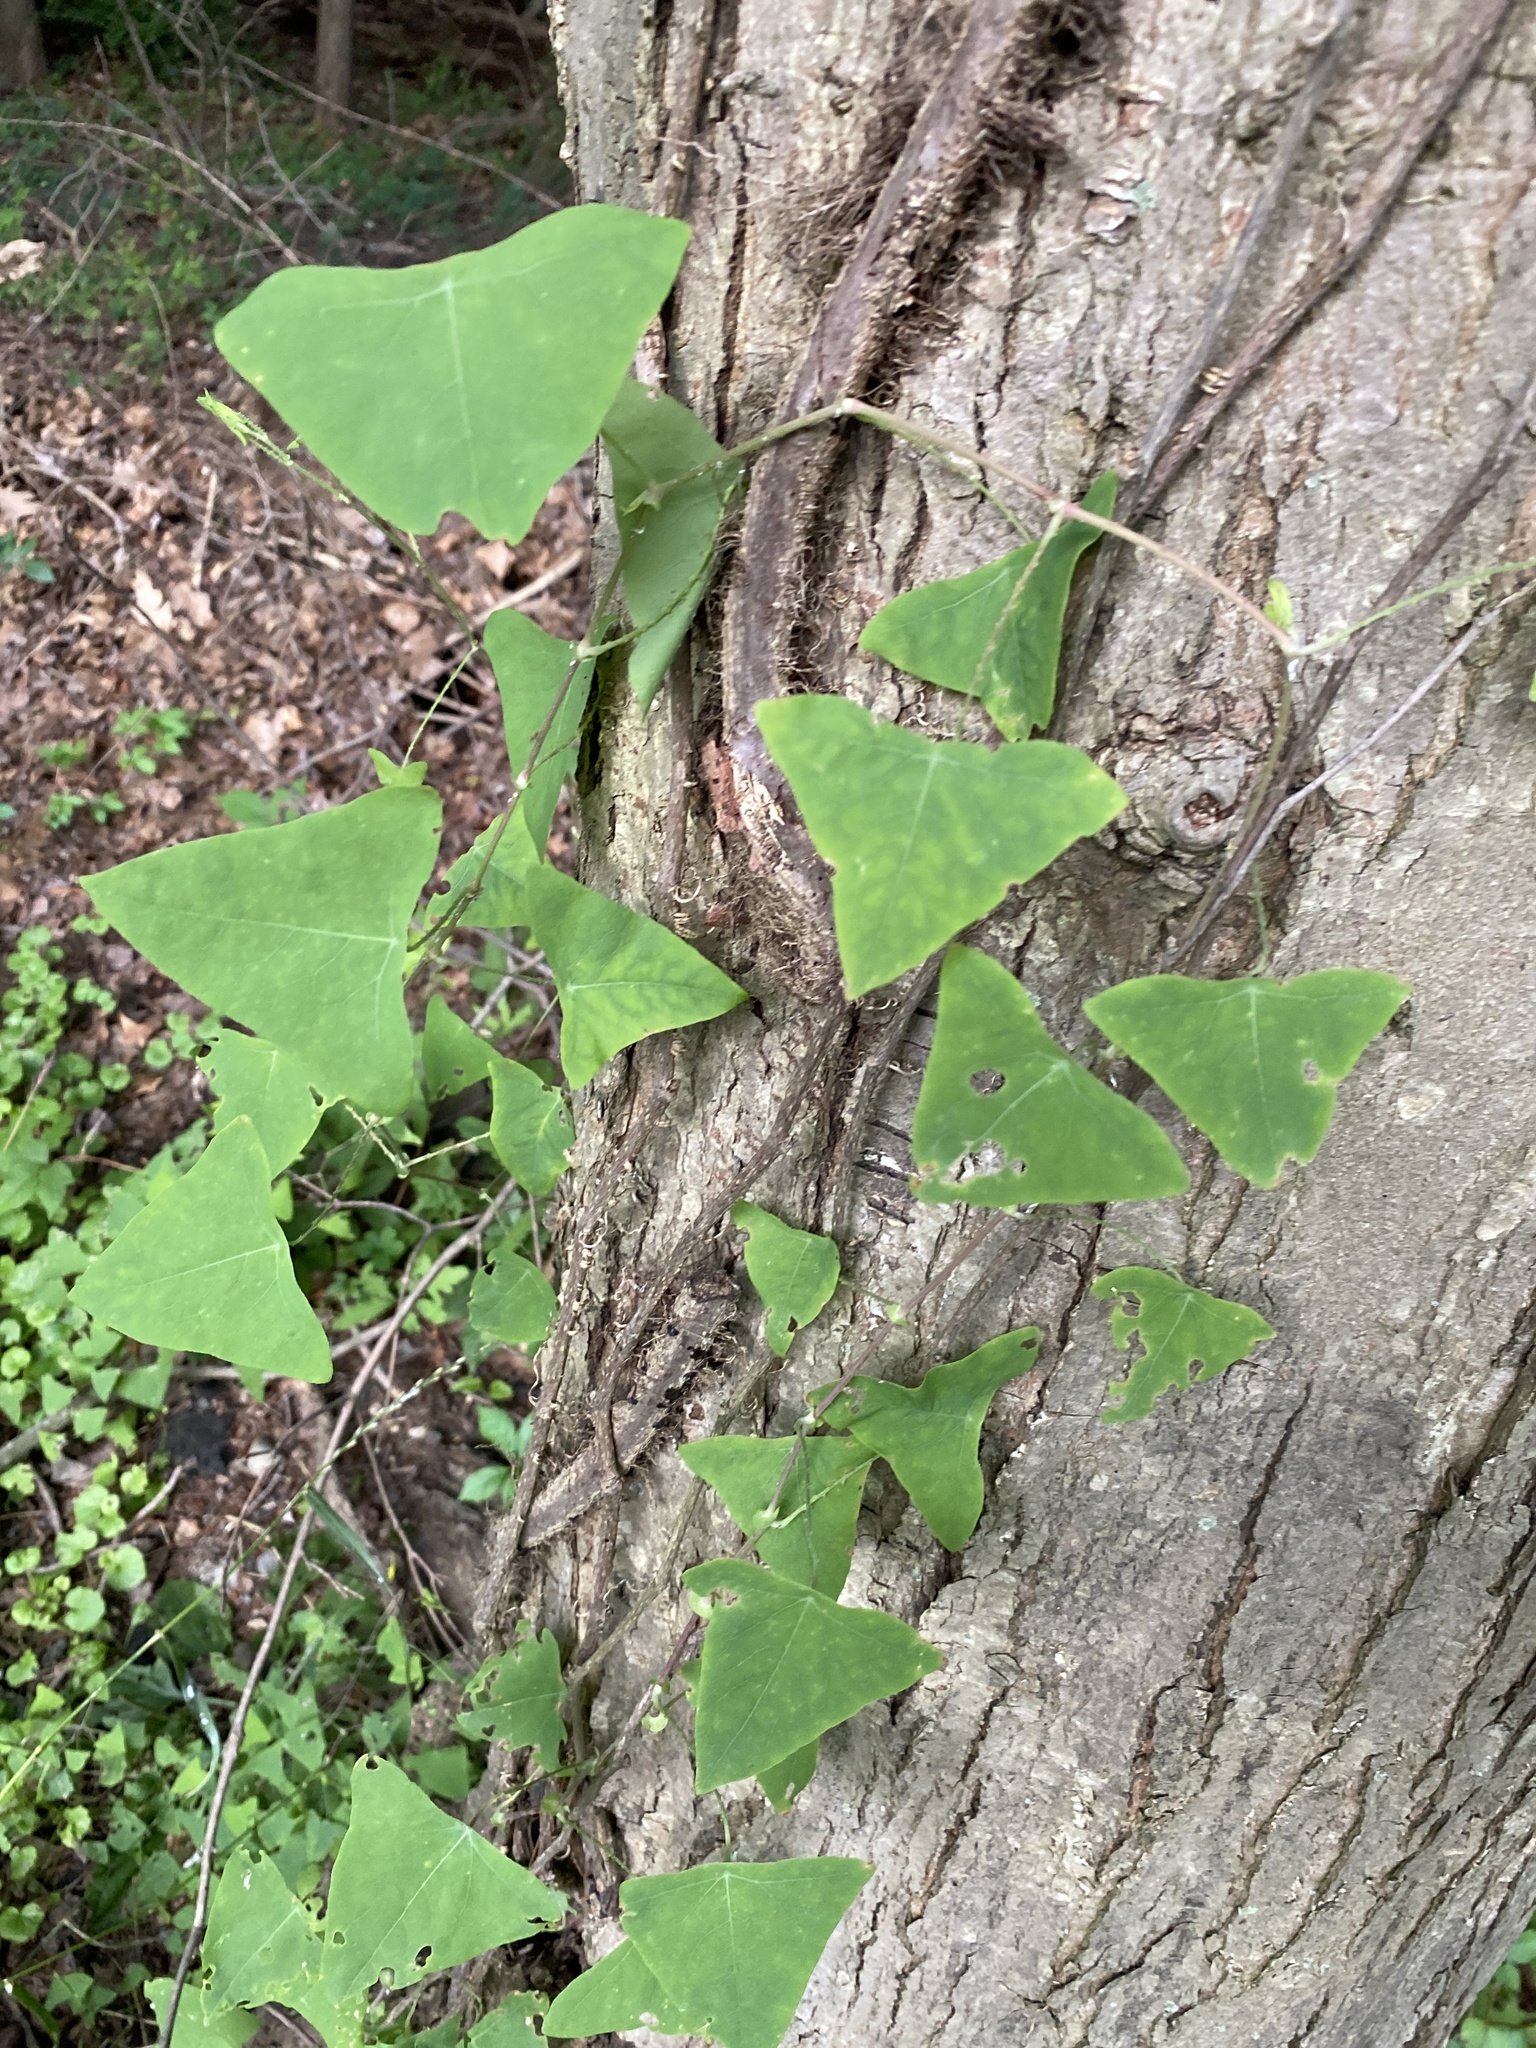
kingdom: Plantae
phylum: Tracheophyta
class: Magnoliopsida
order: Caryophyllales
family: Polygonaceae
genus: Persicaria
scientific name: Persicaria perfoliata
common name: Asiatic tearthumb
